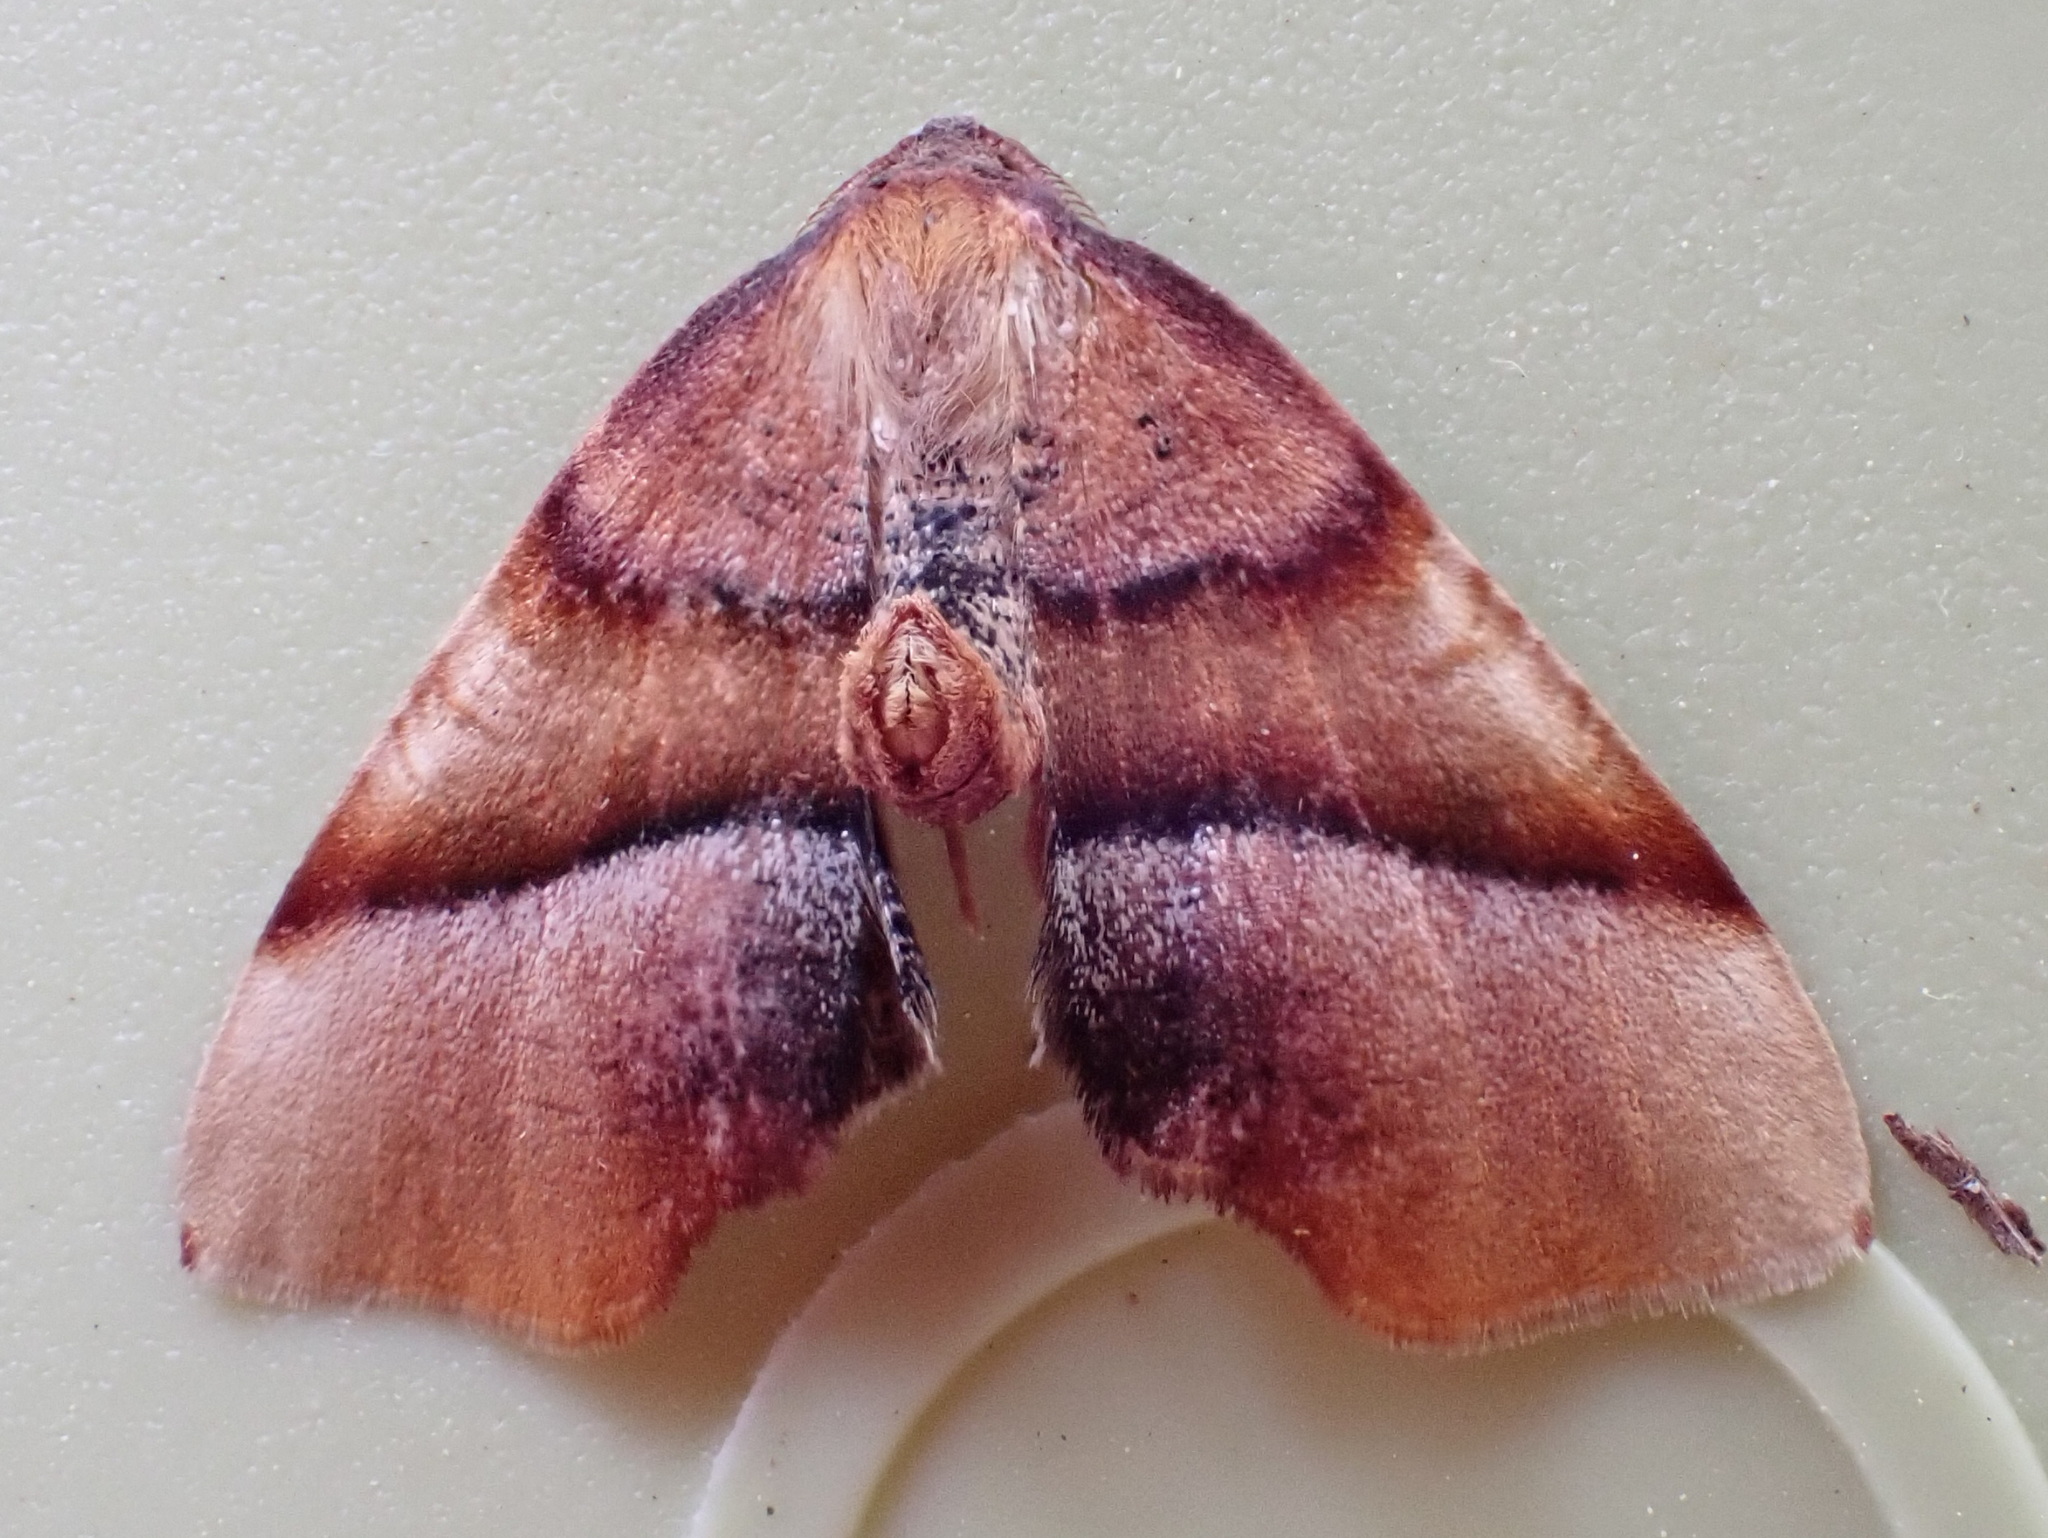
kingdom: Animalia
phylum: Arthropoda
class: Insecta
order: Lepidoptera
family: Geometridae
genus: Plagodis
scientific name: Plagodis phlogosaria
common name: Straight-lined plagodis
